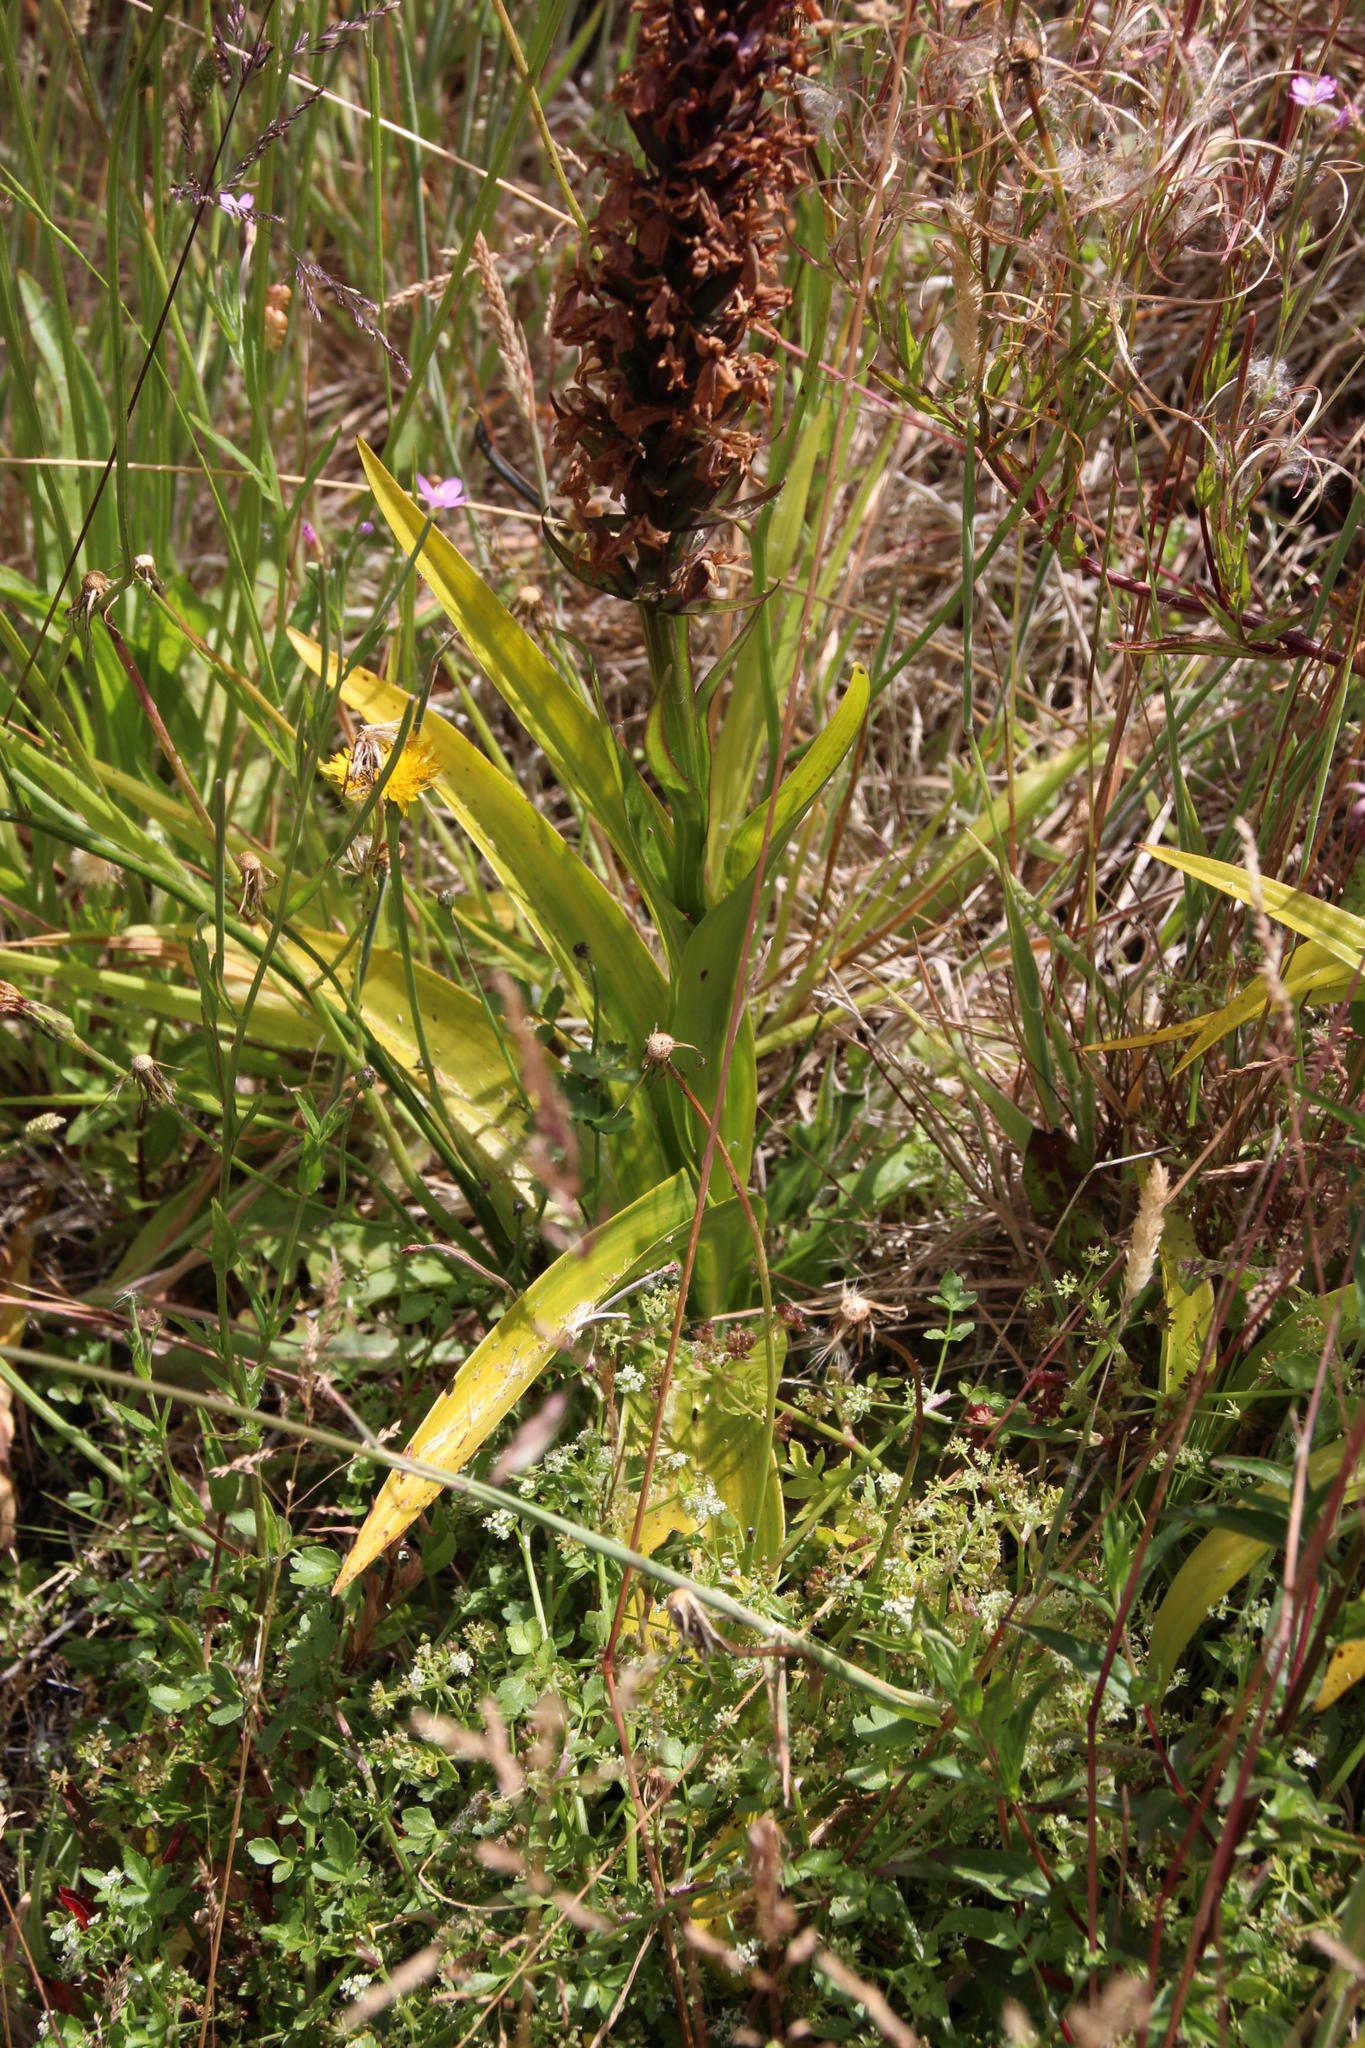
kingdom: Plantae
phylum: Tracheophyta
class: Liliopsida
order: Asparagales
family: Orchidaceae
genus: Dactylorhiza
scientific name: Dactylorhiza foliosa
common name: Richly-leaved dactylorhiza
